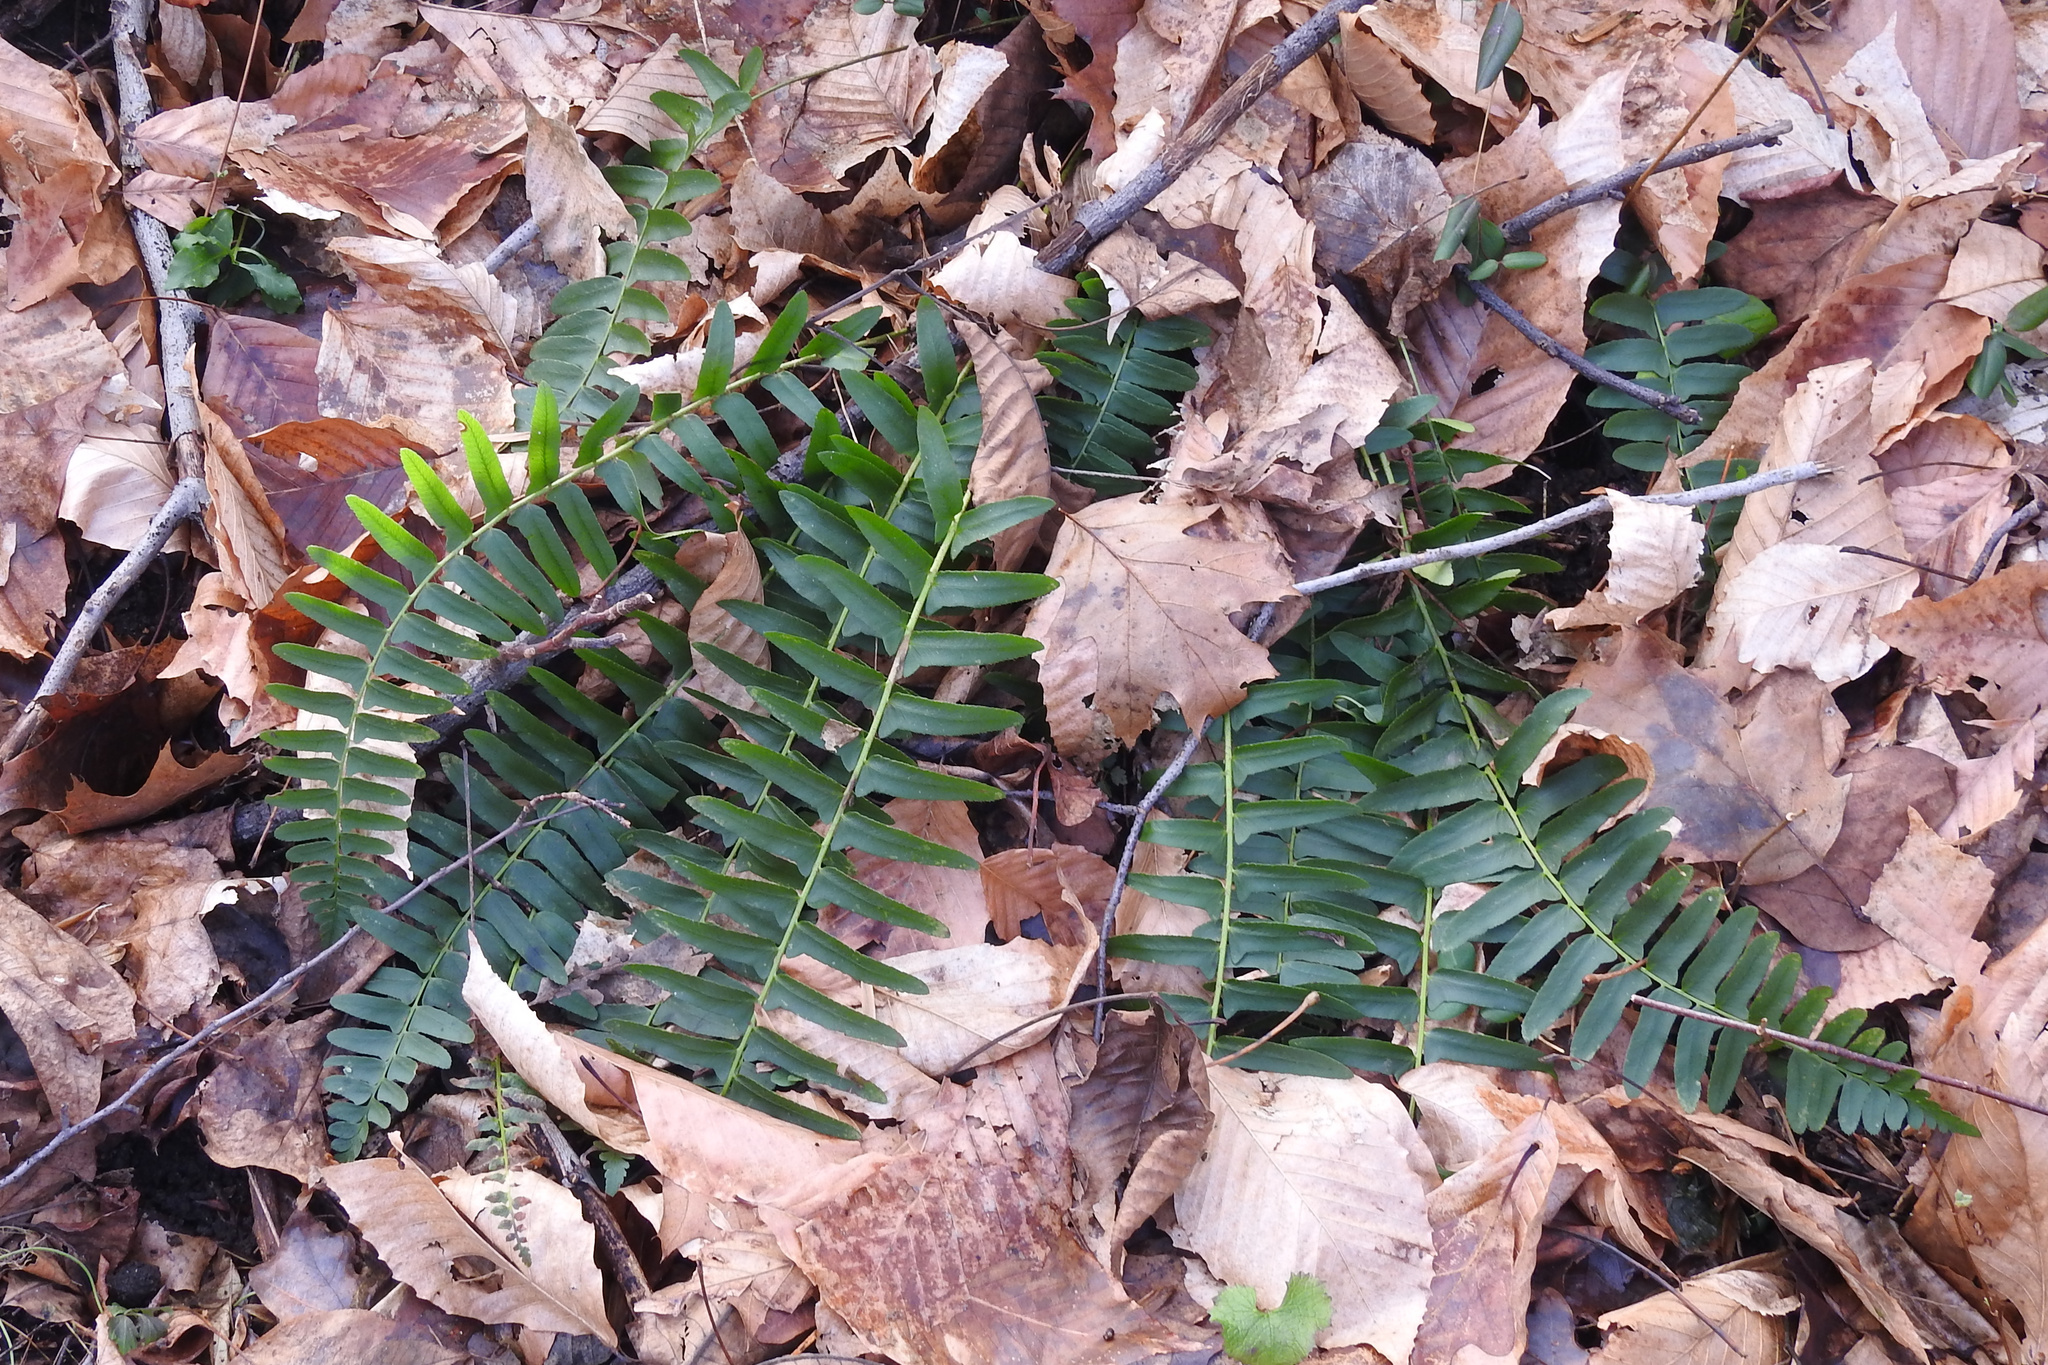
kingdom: Plantae
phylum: Tracheophyta
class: Polypodiopsida
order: Polypodiales
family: Dryopteridaceae
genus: Polystichum
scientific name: Polystichum acrostichoides
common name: Christmas fern
